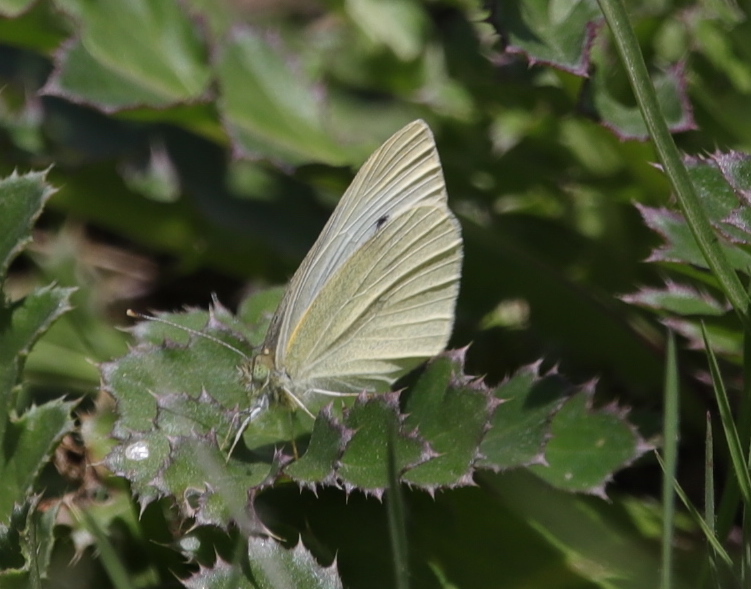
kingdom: Animalia
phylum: Arthropoda
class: Insecta
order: Lepidoptera
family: Pieridae
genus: Pieris
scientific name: Pieris rapae
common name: Small white
